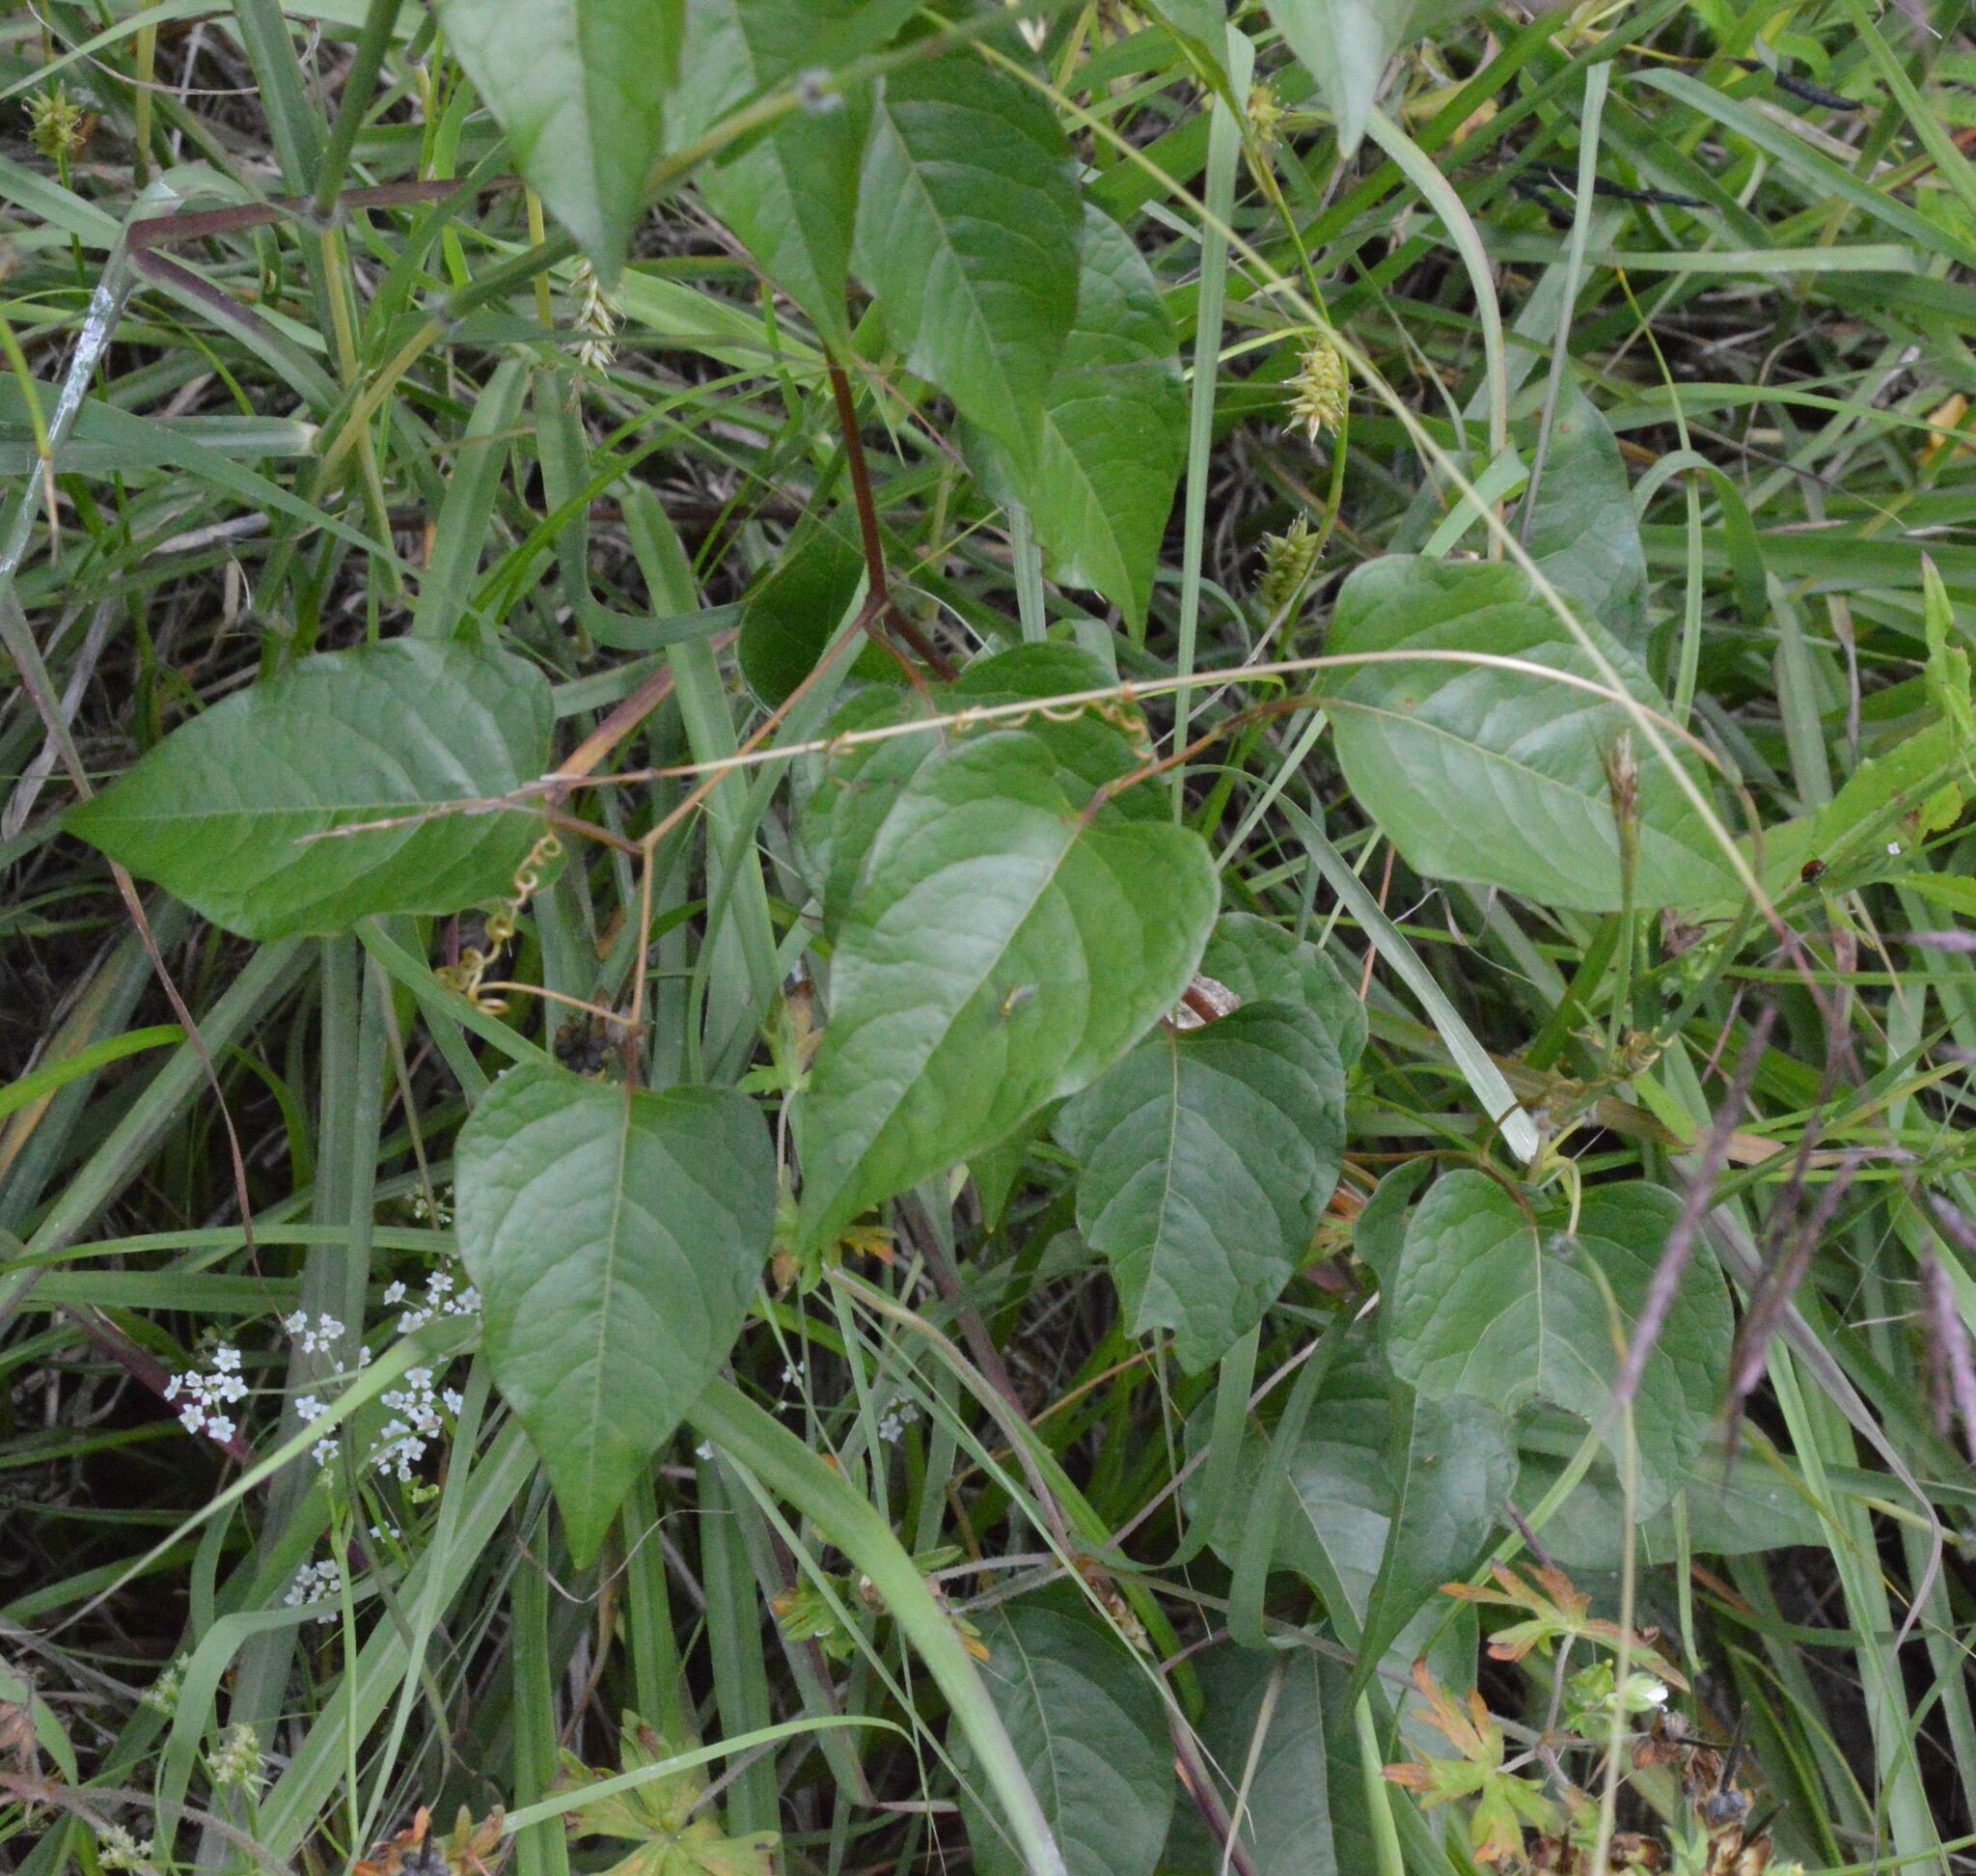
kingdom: Plantae
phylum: Tracheophyta
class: Magnoliopsida
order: Caryophyllales
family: Polygonaceae
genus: Brunnichia
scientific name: Brunnichia ovata
